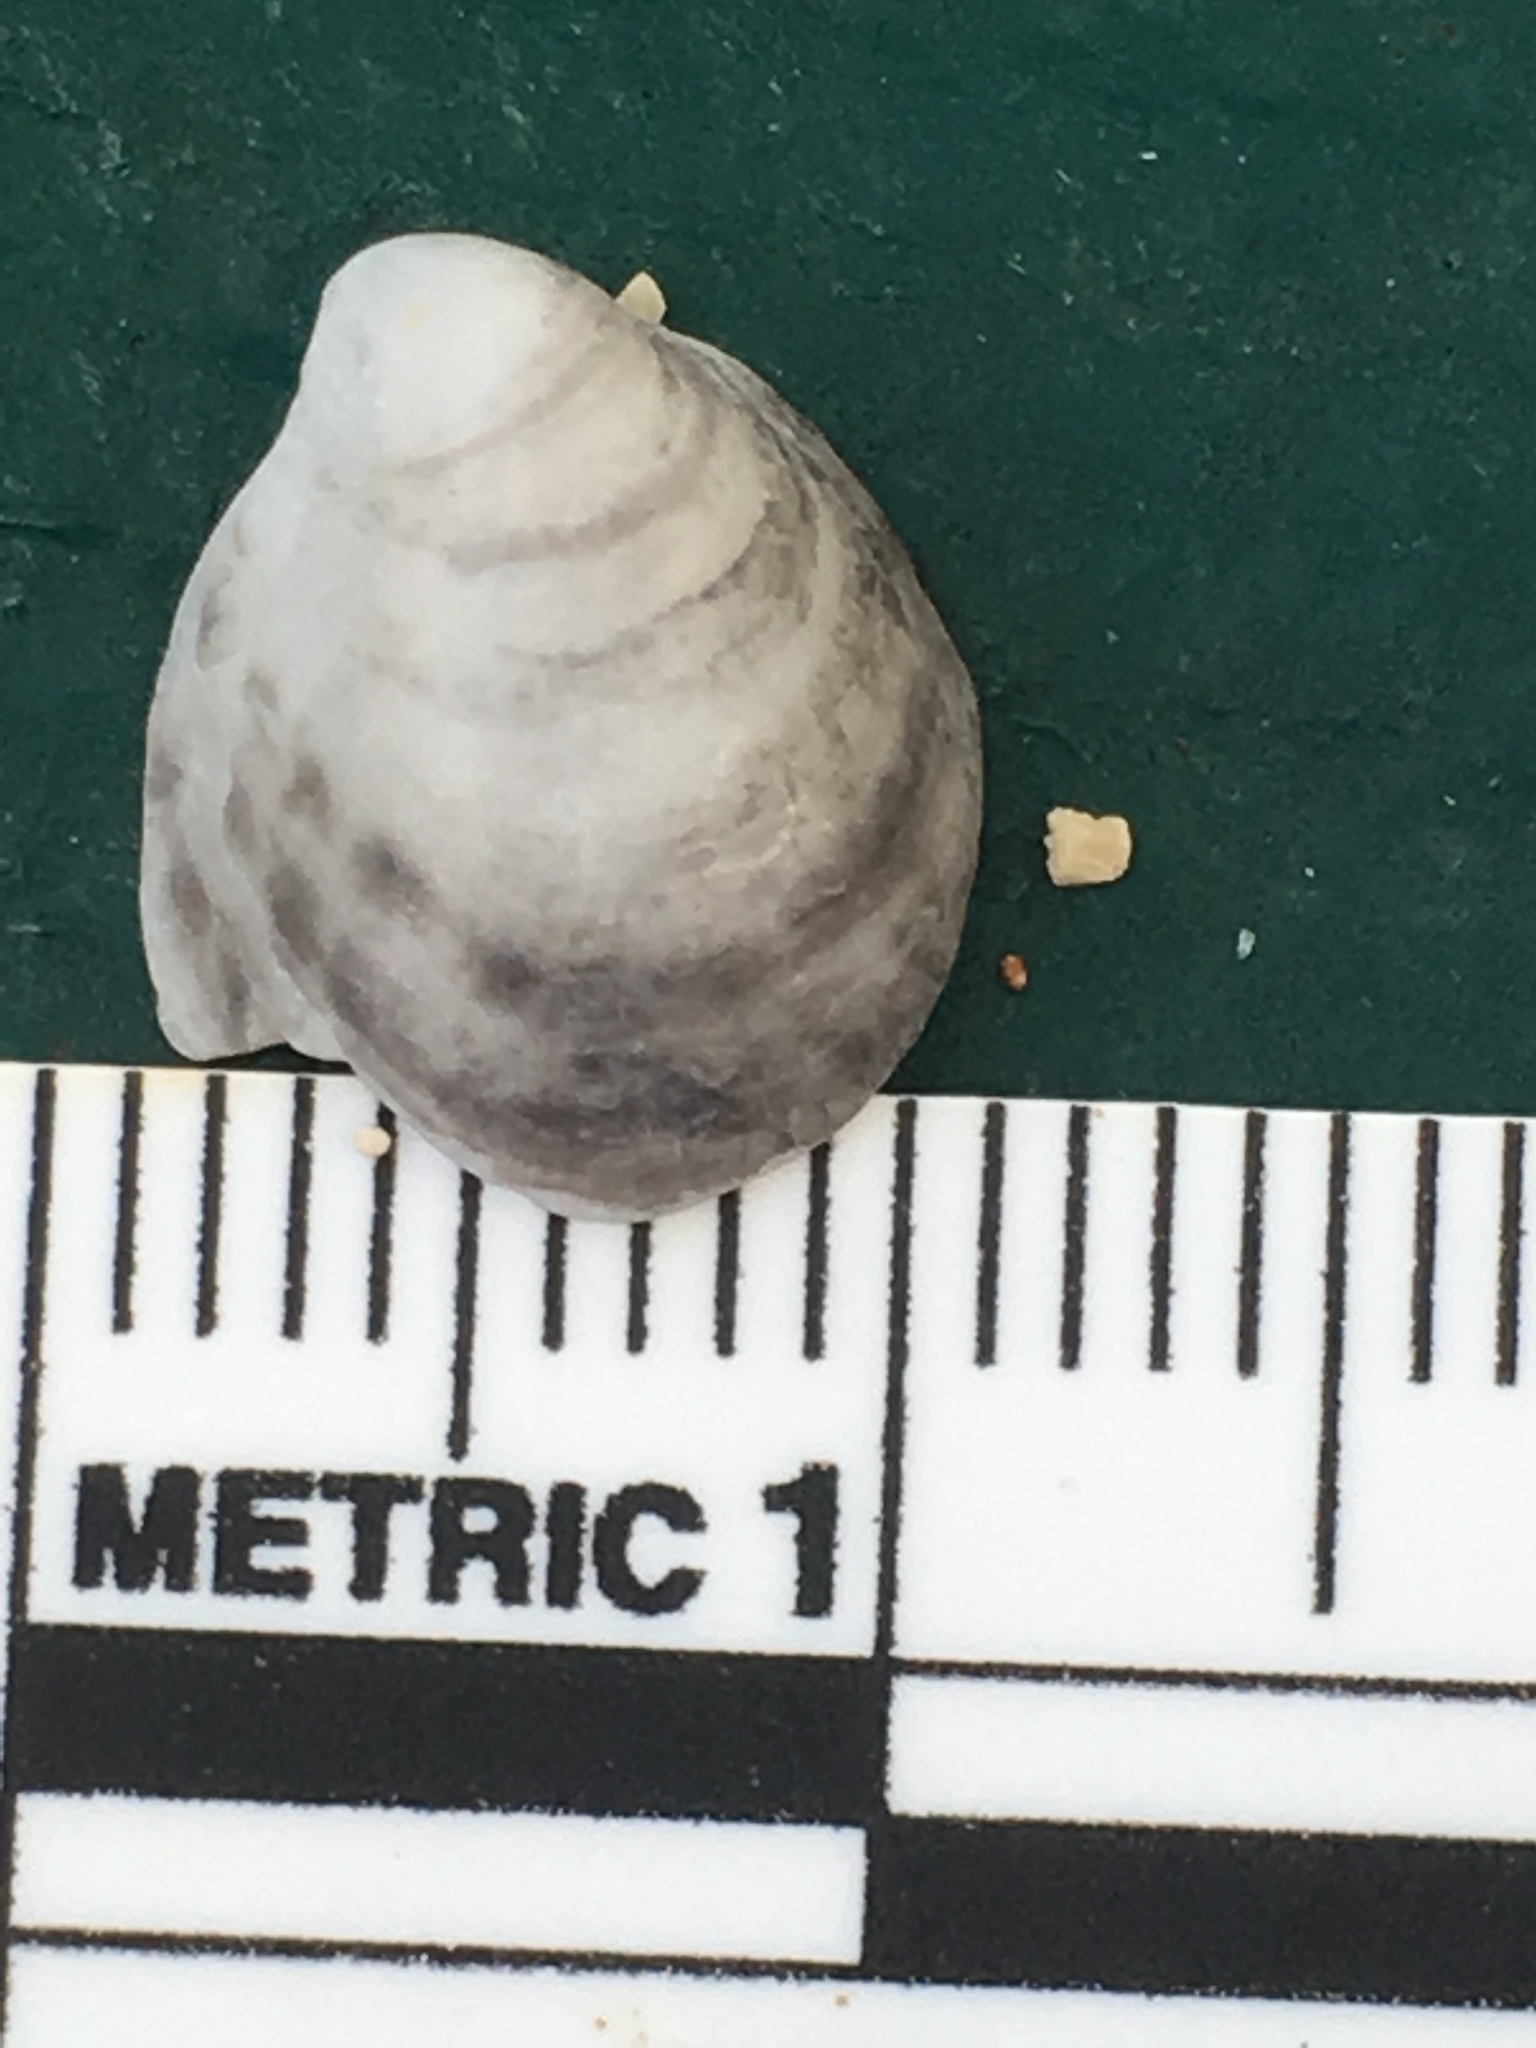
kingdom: Animalia
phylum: Mollusca
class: Gastropoda
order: Littorinimorpha
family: Calyptraeidae
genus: Crepidula
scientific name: Crepidula fornicata
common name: Slipper limpet
